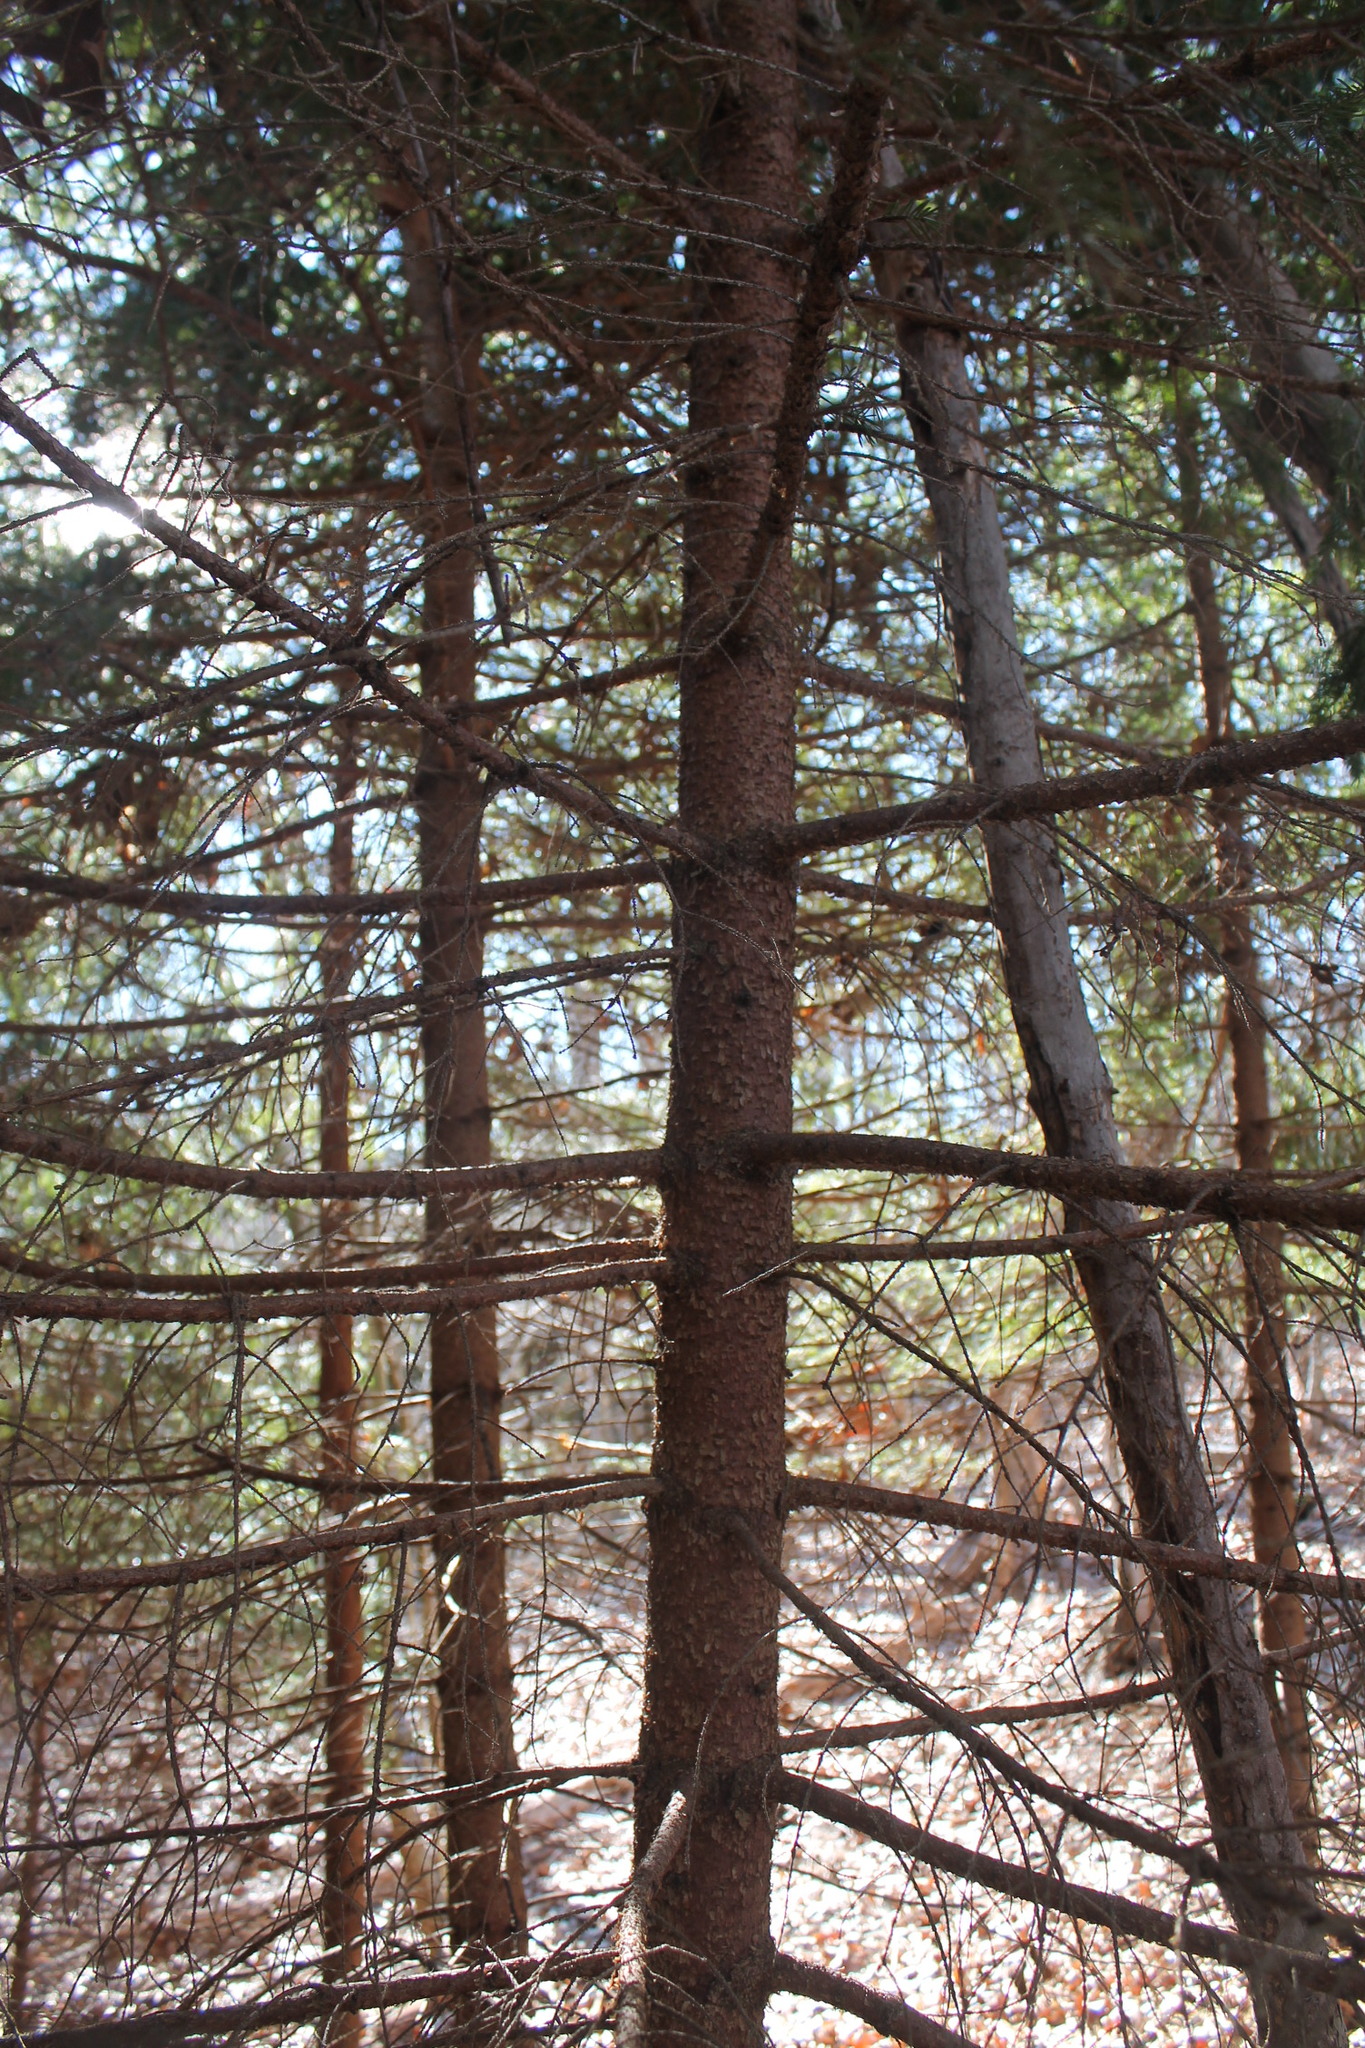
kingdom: Plantae
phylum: Tracheophyta
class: Pinopsida
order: Pinales
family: Pinaceae
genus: Picea
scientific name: Picea abies
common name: Norway spruce
